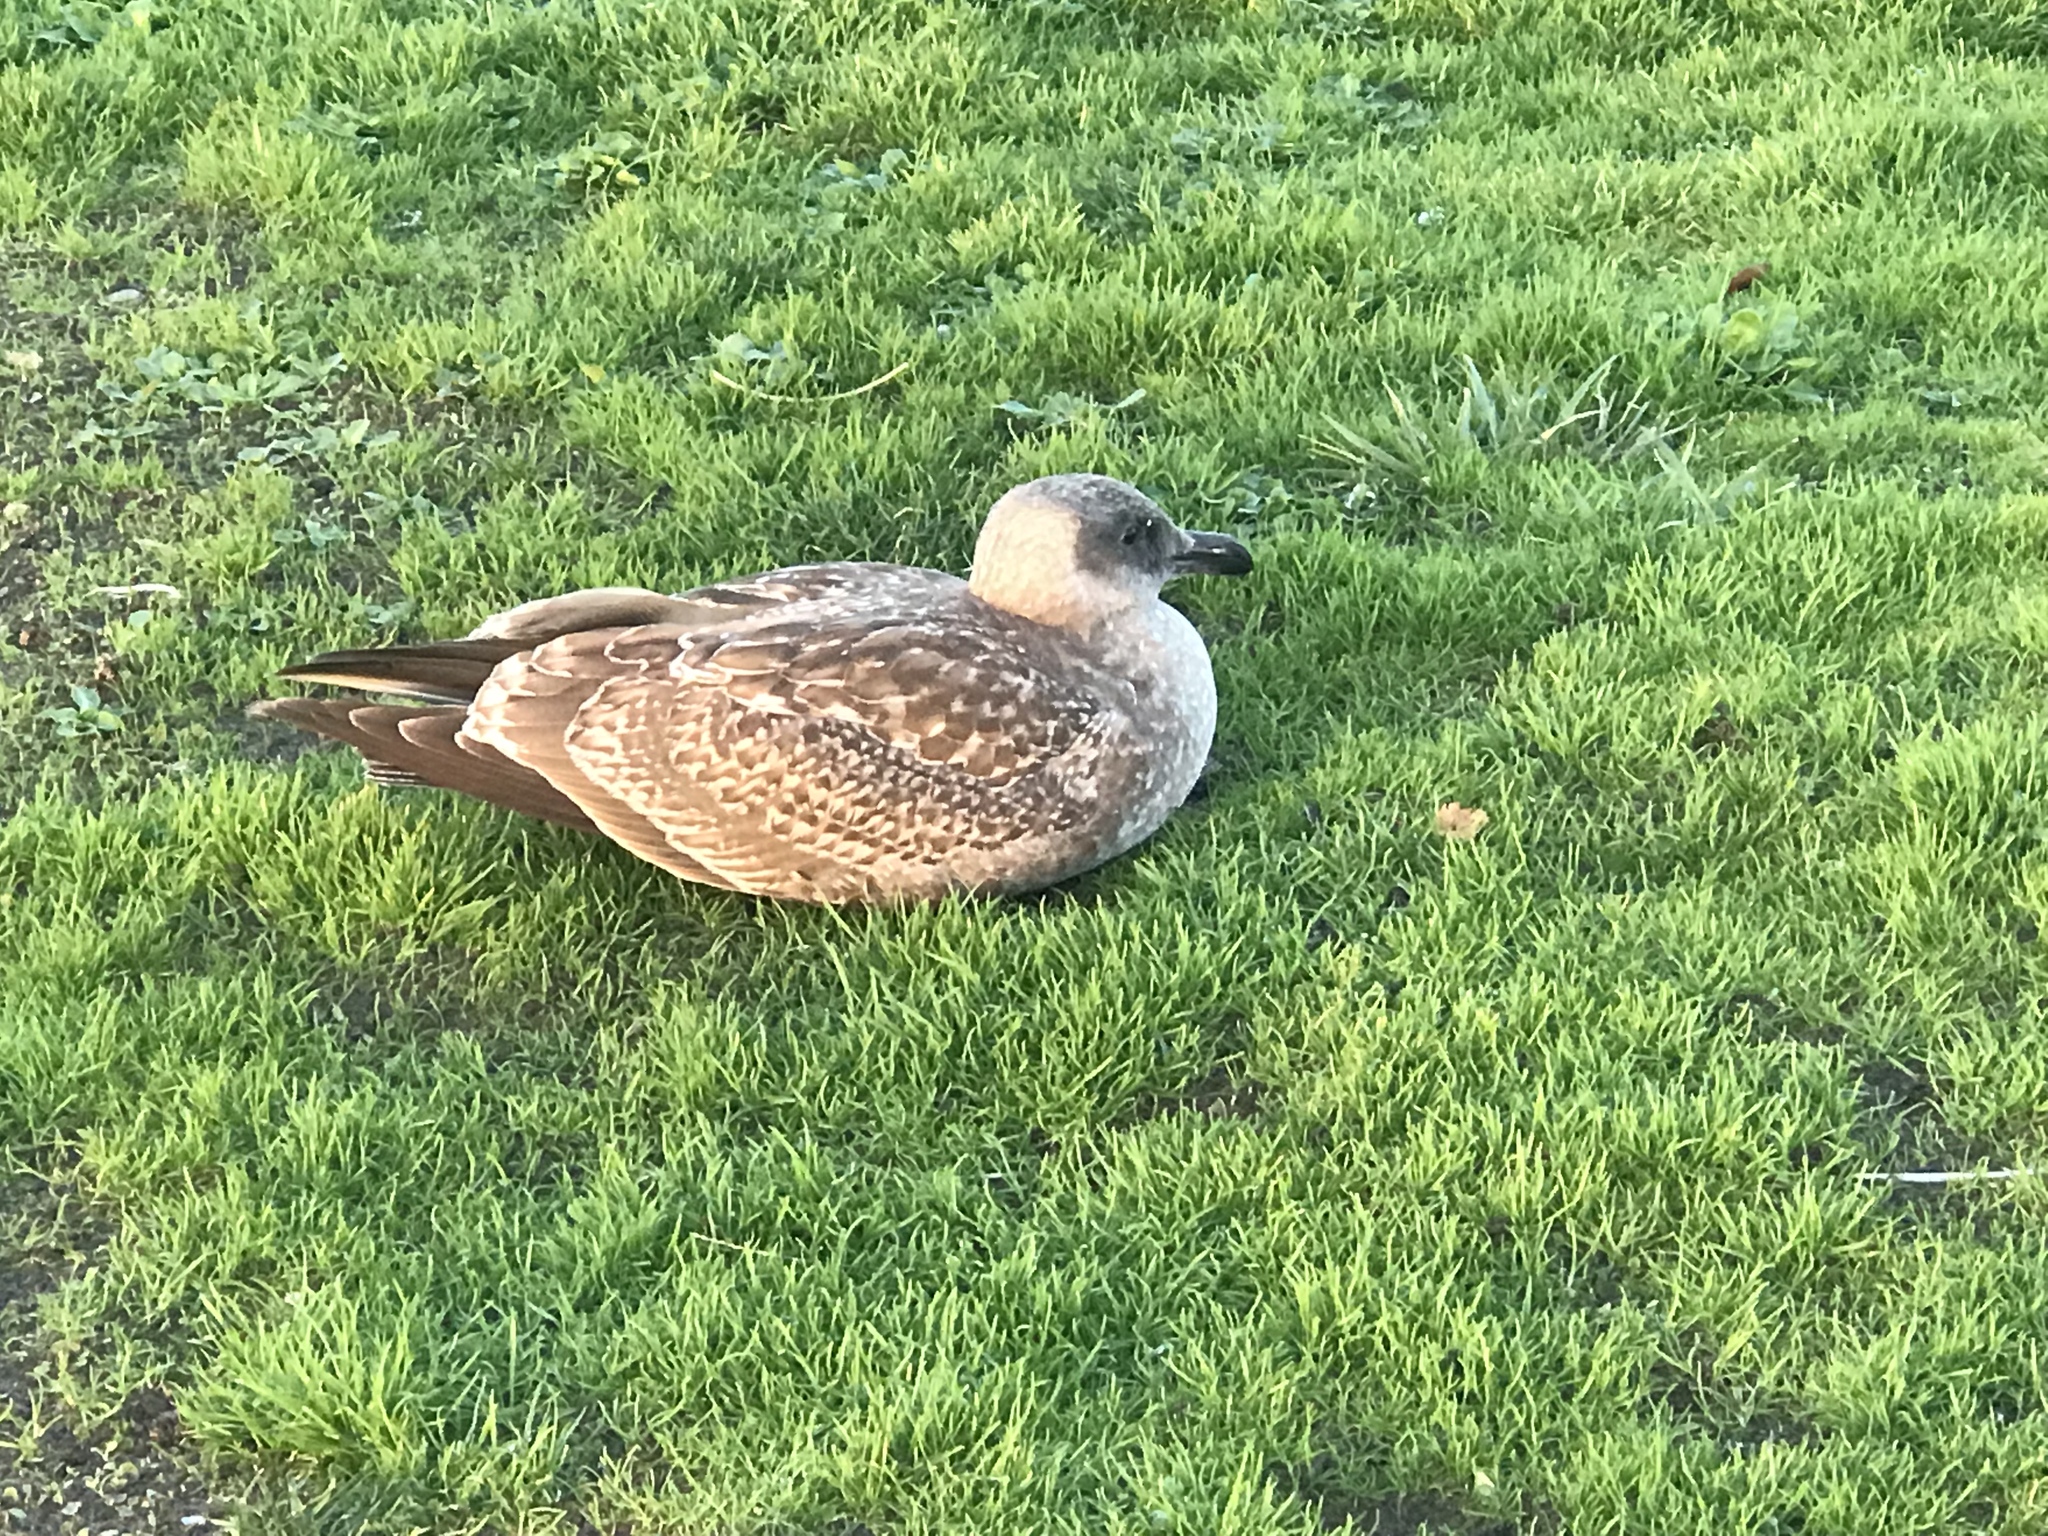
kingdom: Animalia
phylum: Chordata
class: Aves
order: Charadriiformes
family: Laridae
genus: Larus
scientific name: Larus
